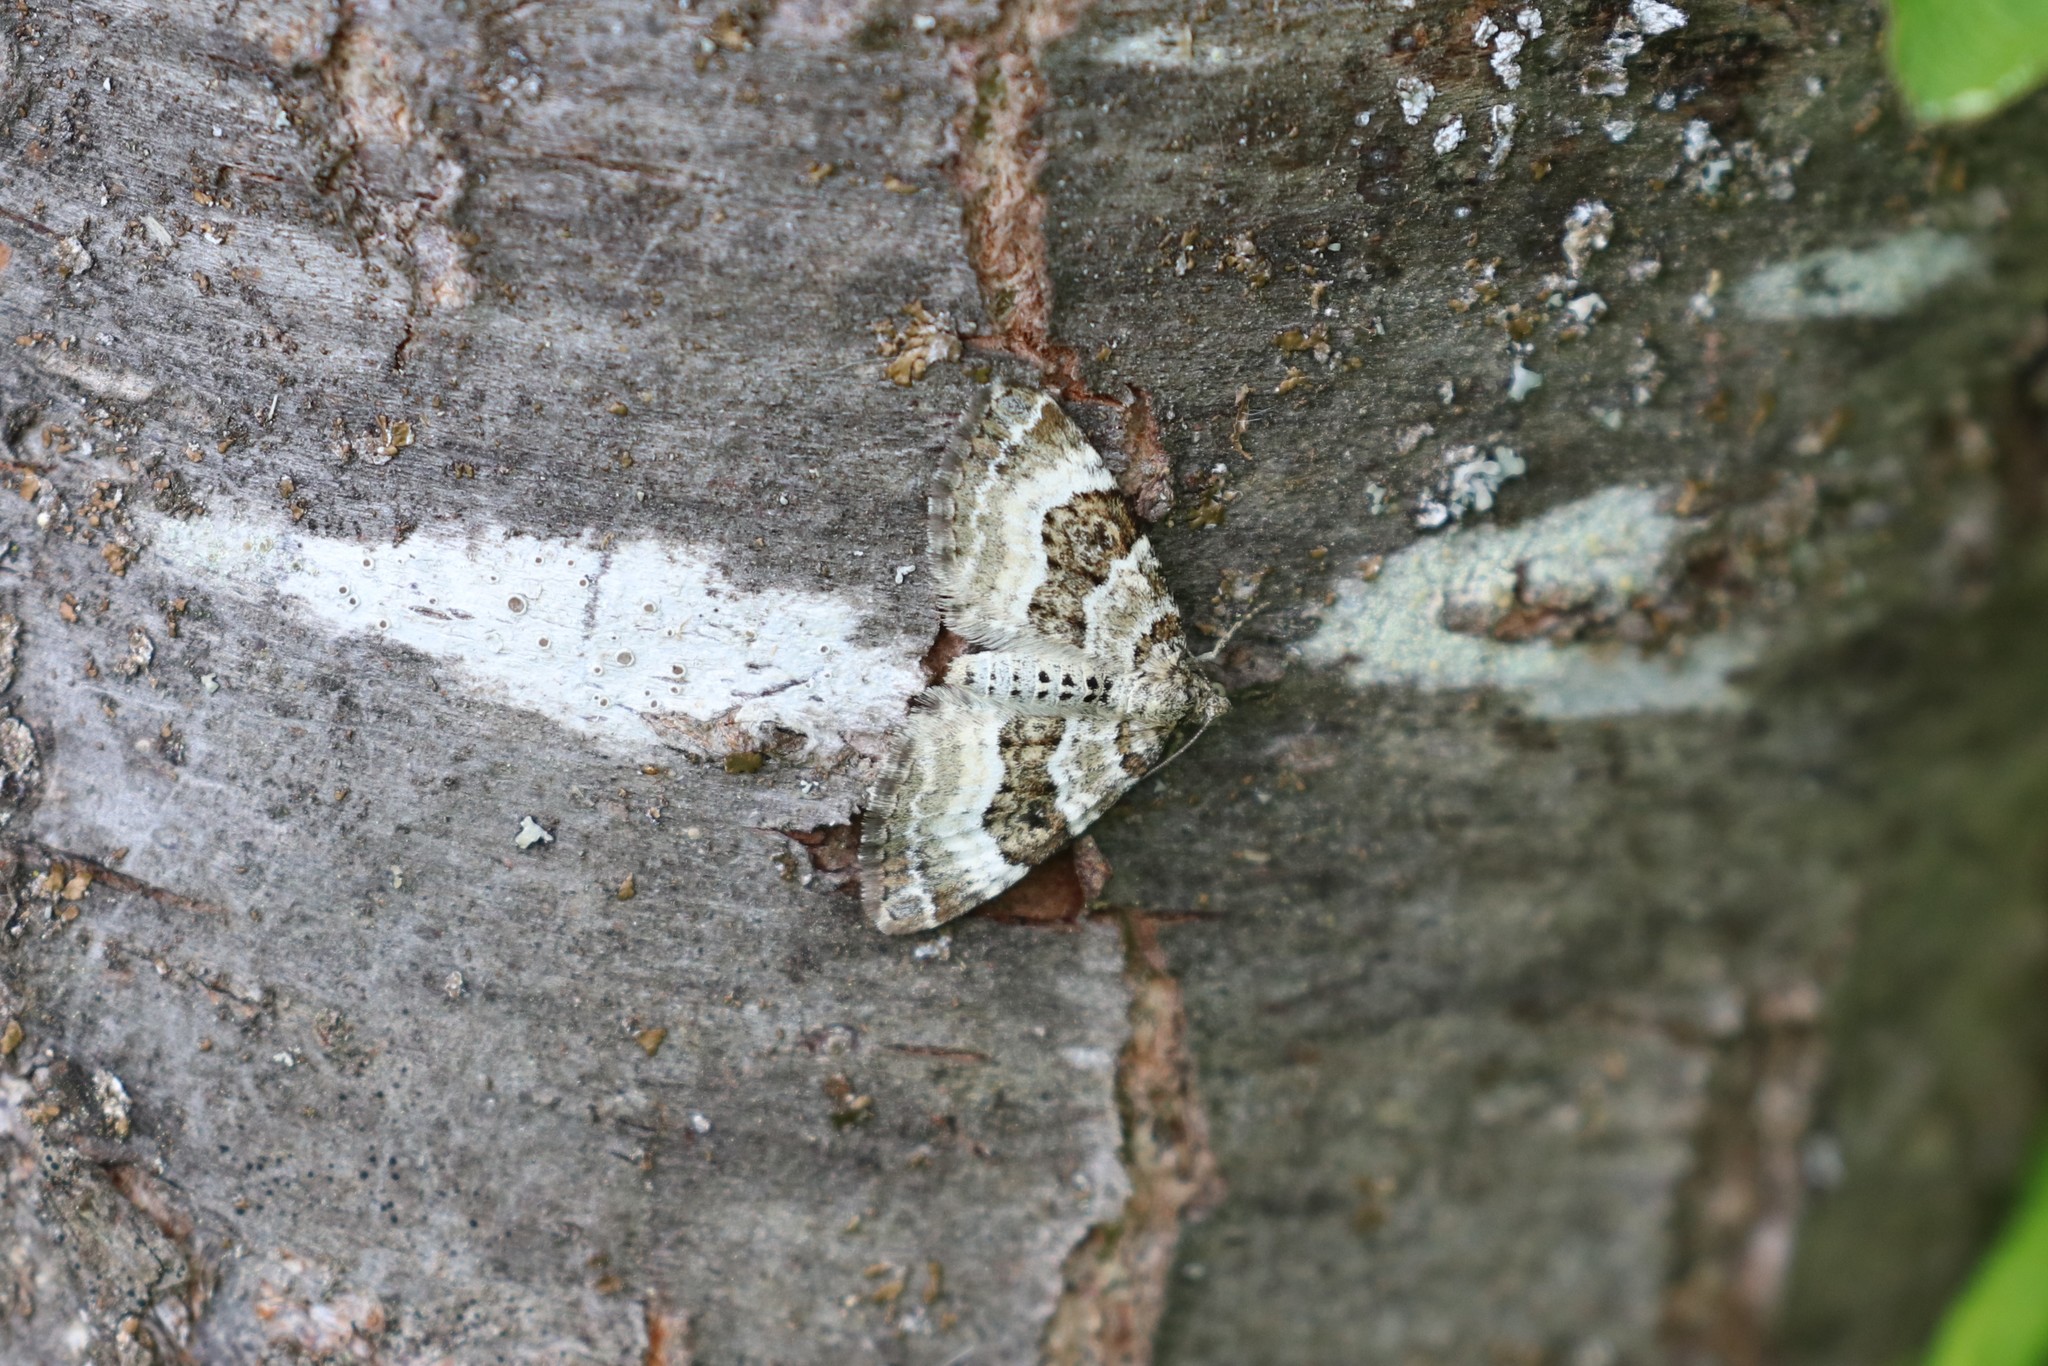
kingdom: Animalia
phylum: Arthropoda
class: Insecta
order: Lepidoptera
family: Geometridae
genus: Epirrhoe
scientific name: Epirrhoe alternata
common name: Common carpet
